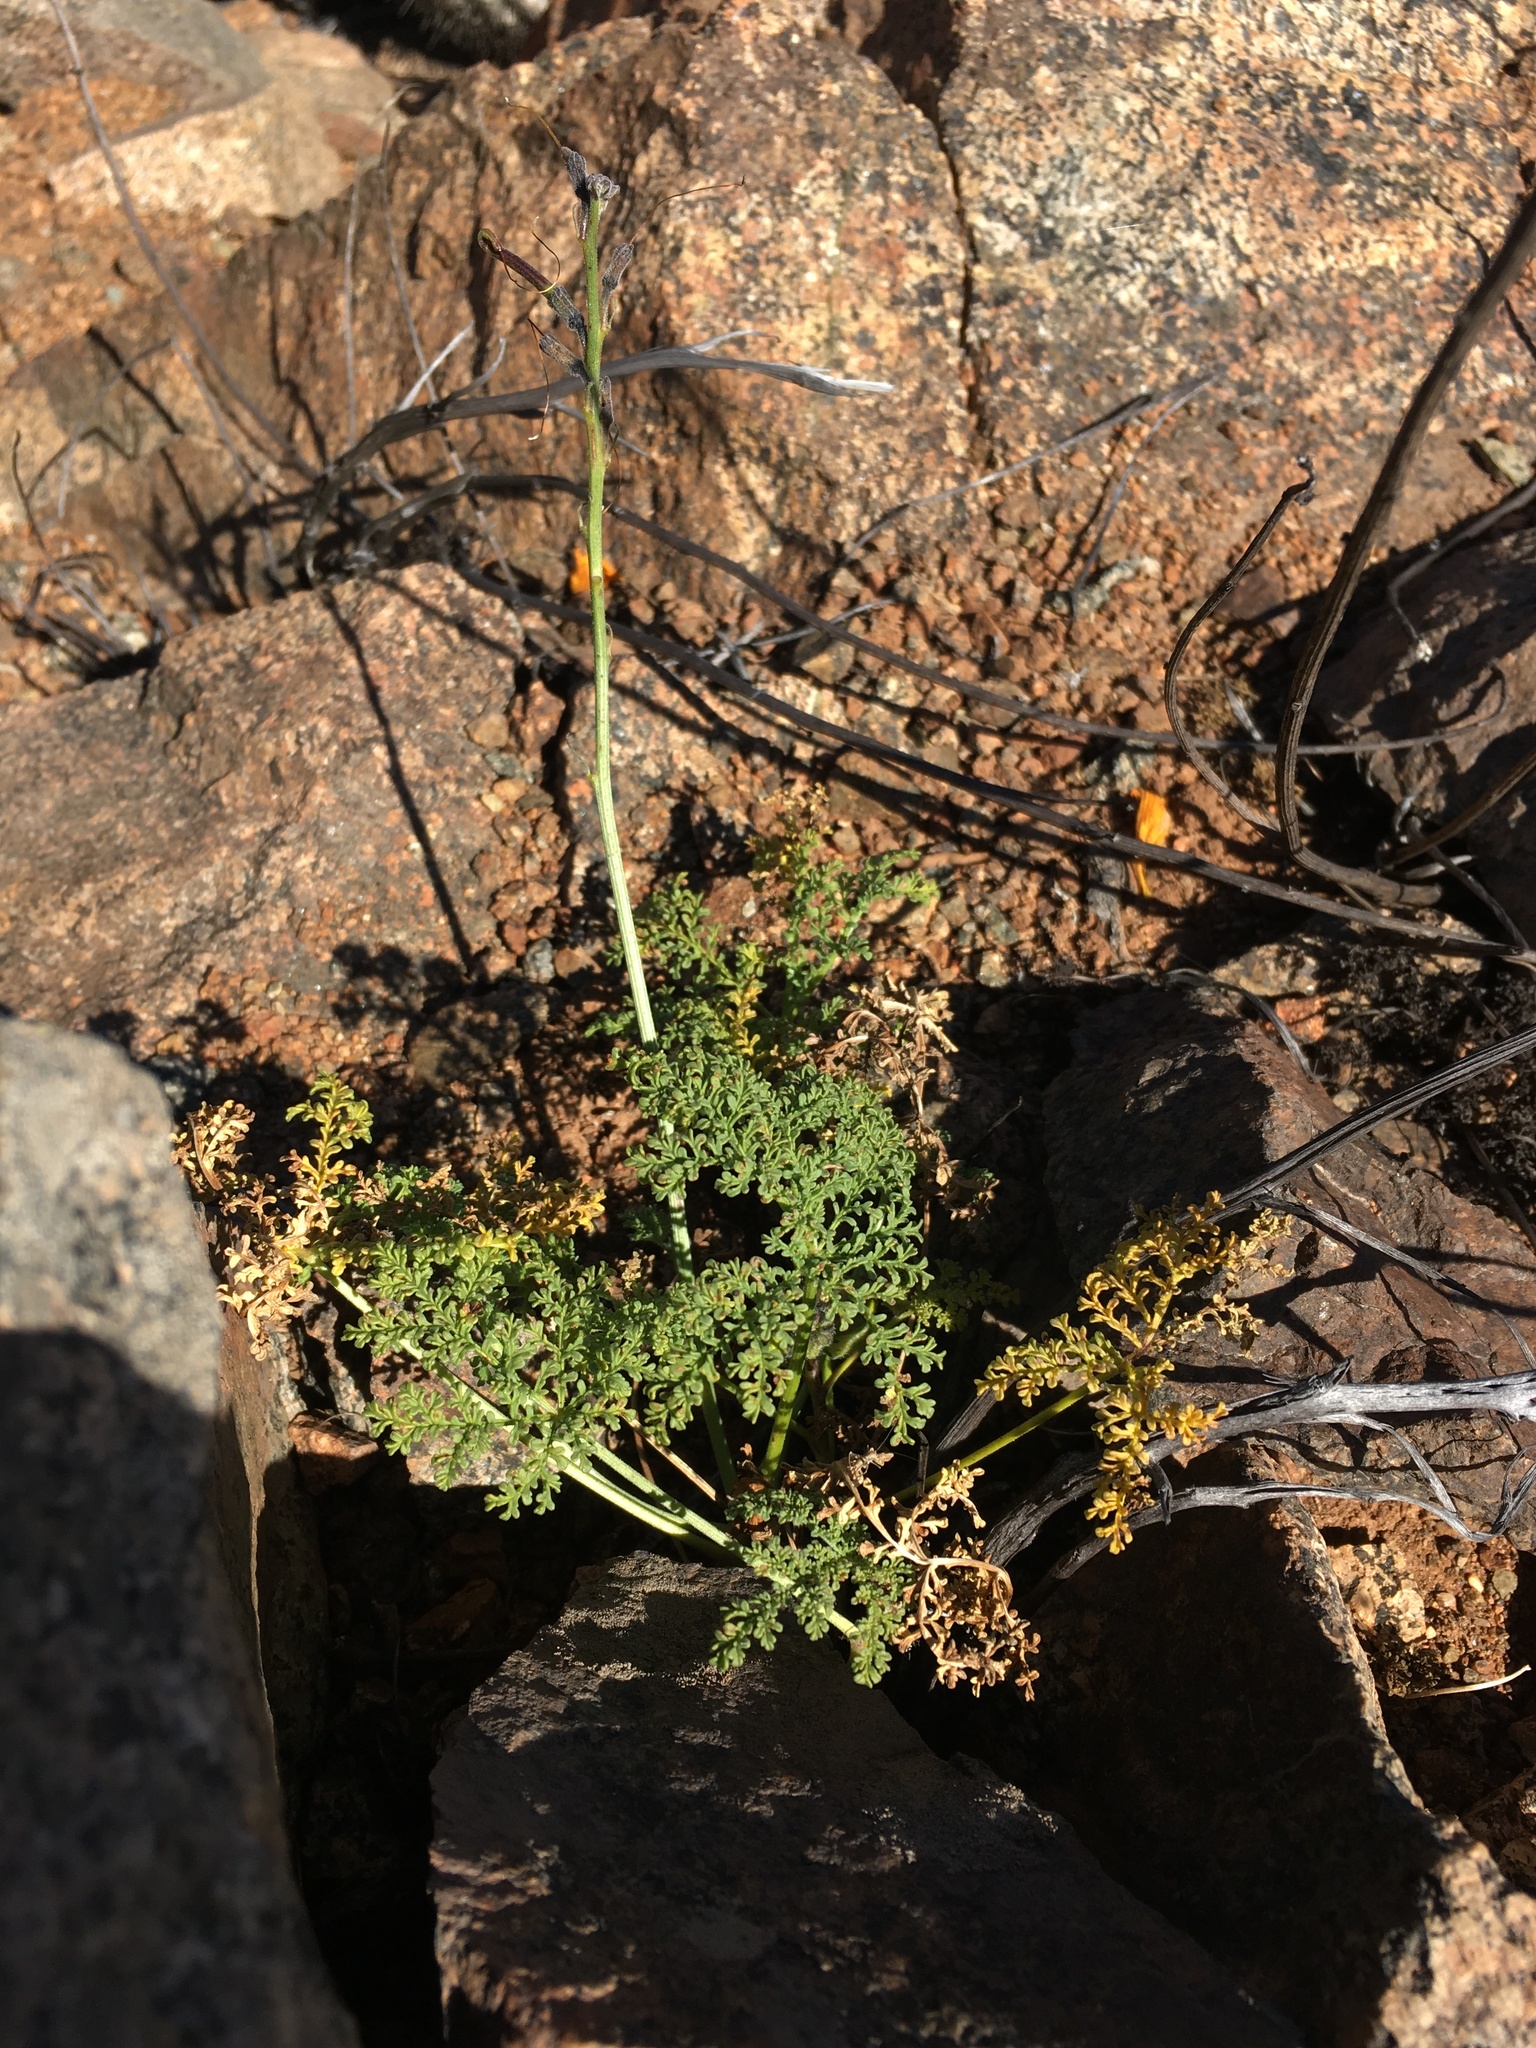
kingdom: Plantae
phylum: Tracheophyta
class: Magnoliopsida
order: Lamiales
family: Bignoniaceae
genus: Argylia
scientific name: Argylia radiata
